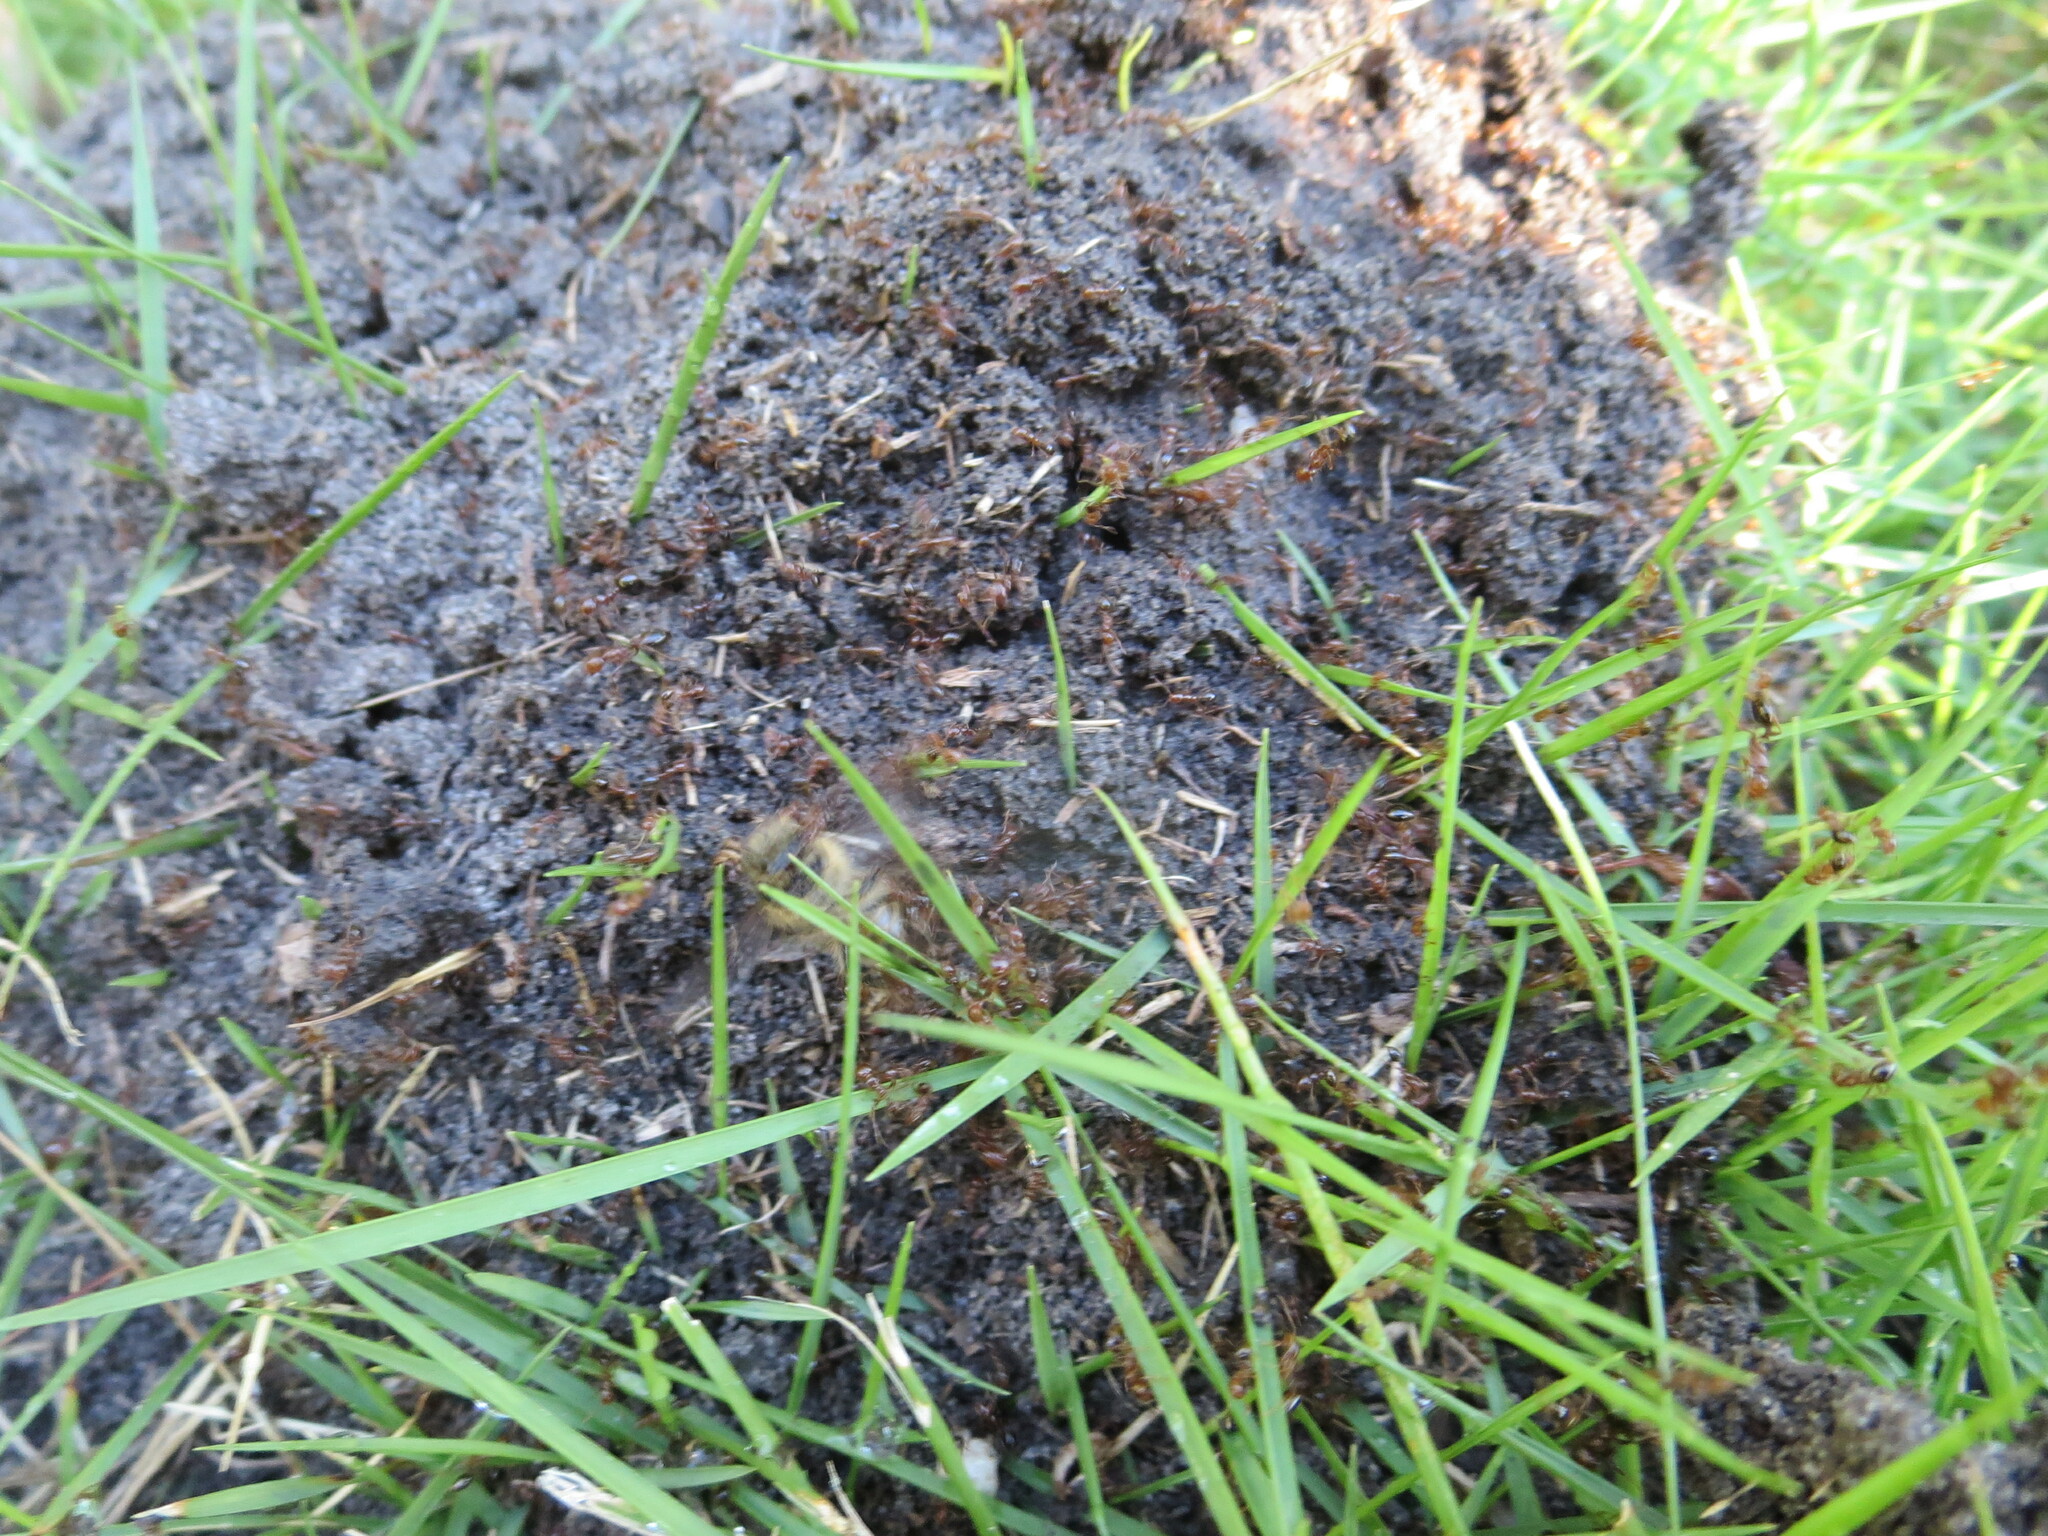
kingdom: Animalia
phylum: Arthropoda
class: Insecta
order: Hymenoptera
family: Formicidae
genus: Solenopsis
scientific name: Solenopsis invicta
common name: Red imported fire ant
